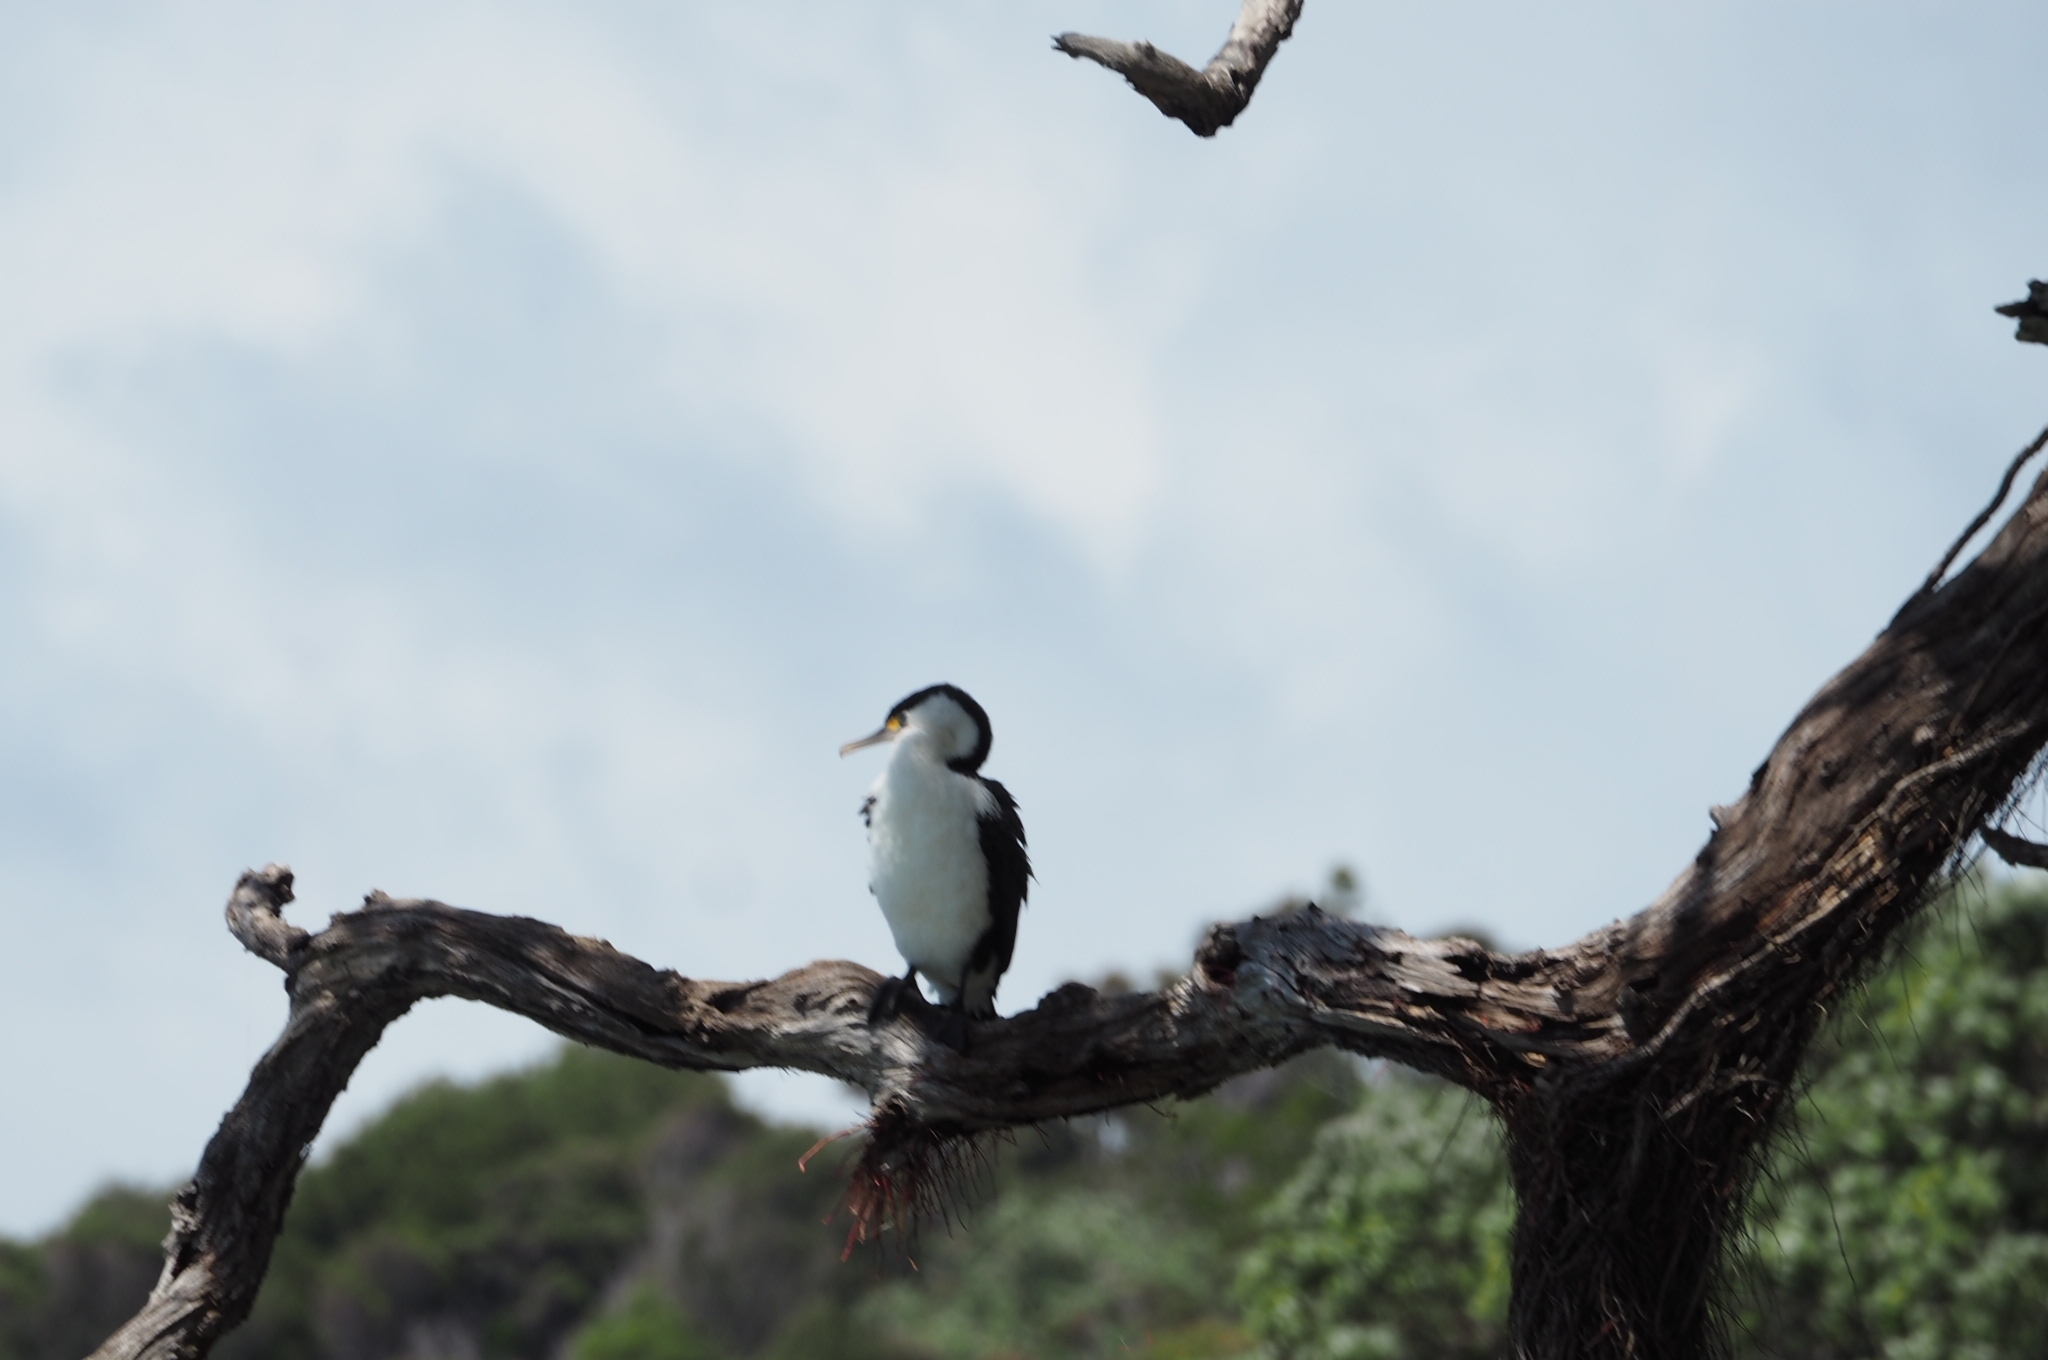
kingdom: Animalia
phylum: Chordata
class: Aves
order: Suliformes
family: Phalacrocoracidae
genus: Phalacrocorax
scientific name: Phalacrocorax varius
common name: Pied cormorant
